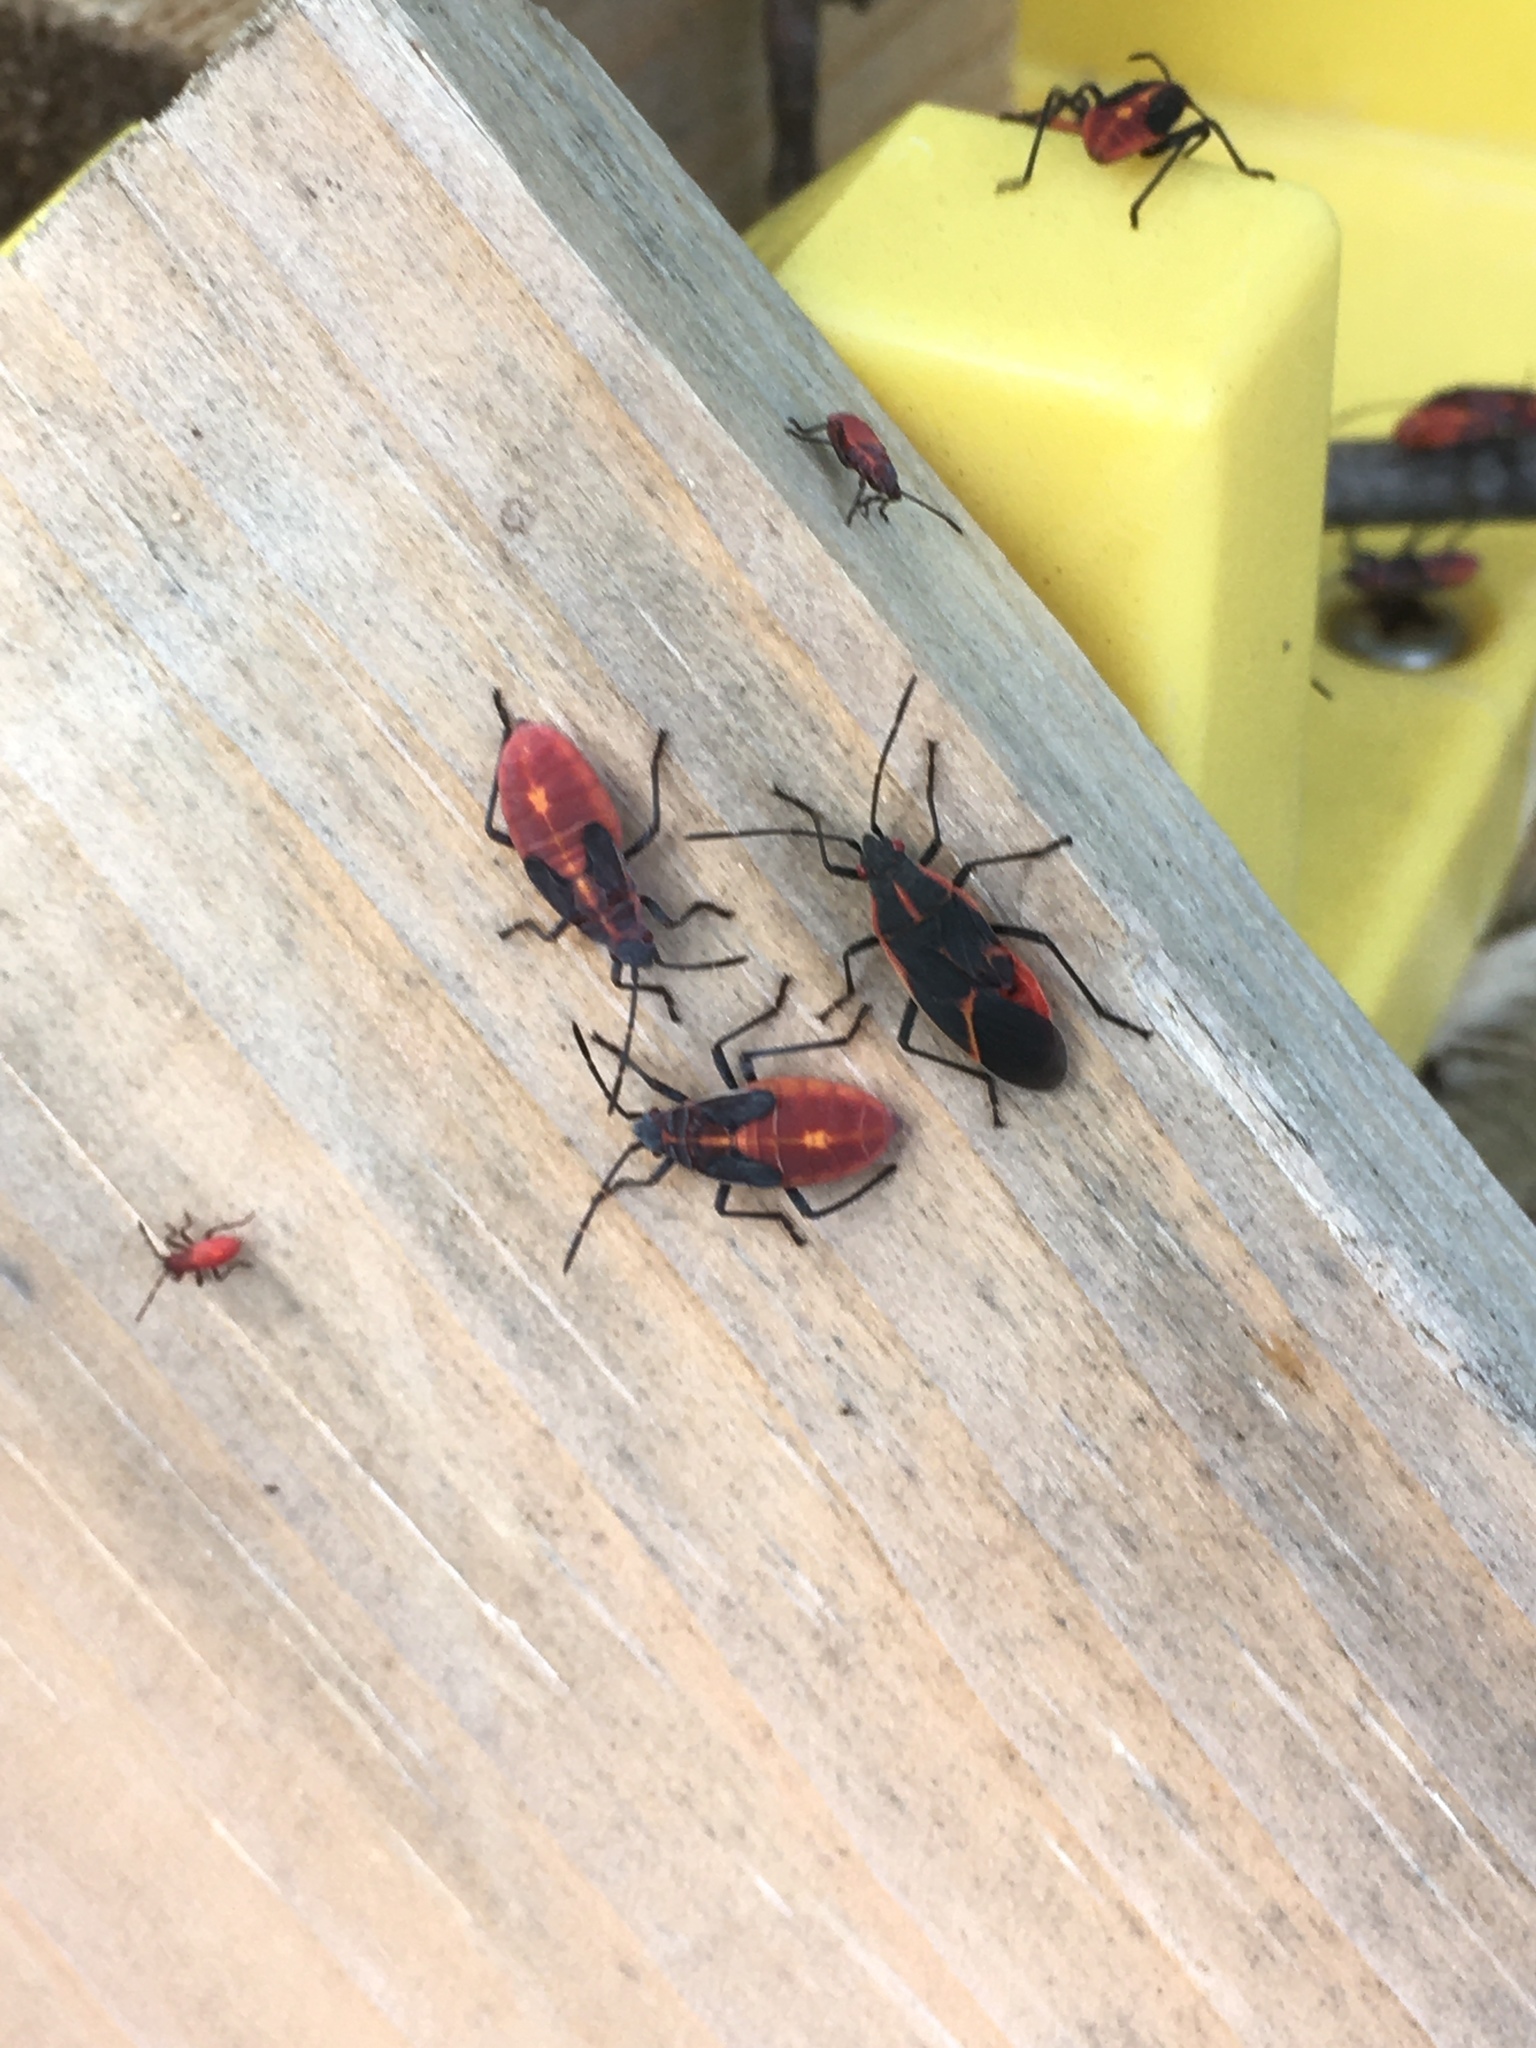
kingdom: Animalia
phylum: Arthropoda
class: Insecta
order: Hemiptera
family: Rhopalidae
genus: Boisea
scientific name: Boisea trivittata
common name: Boxelder bug
